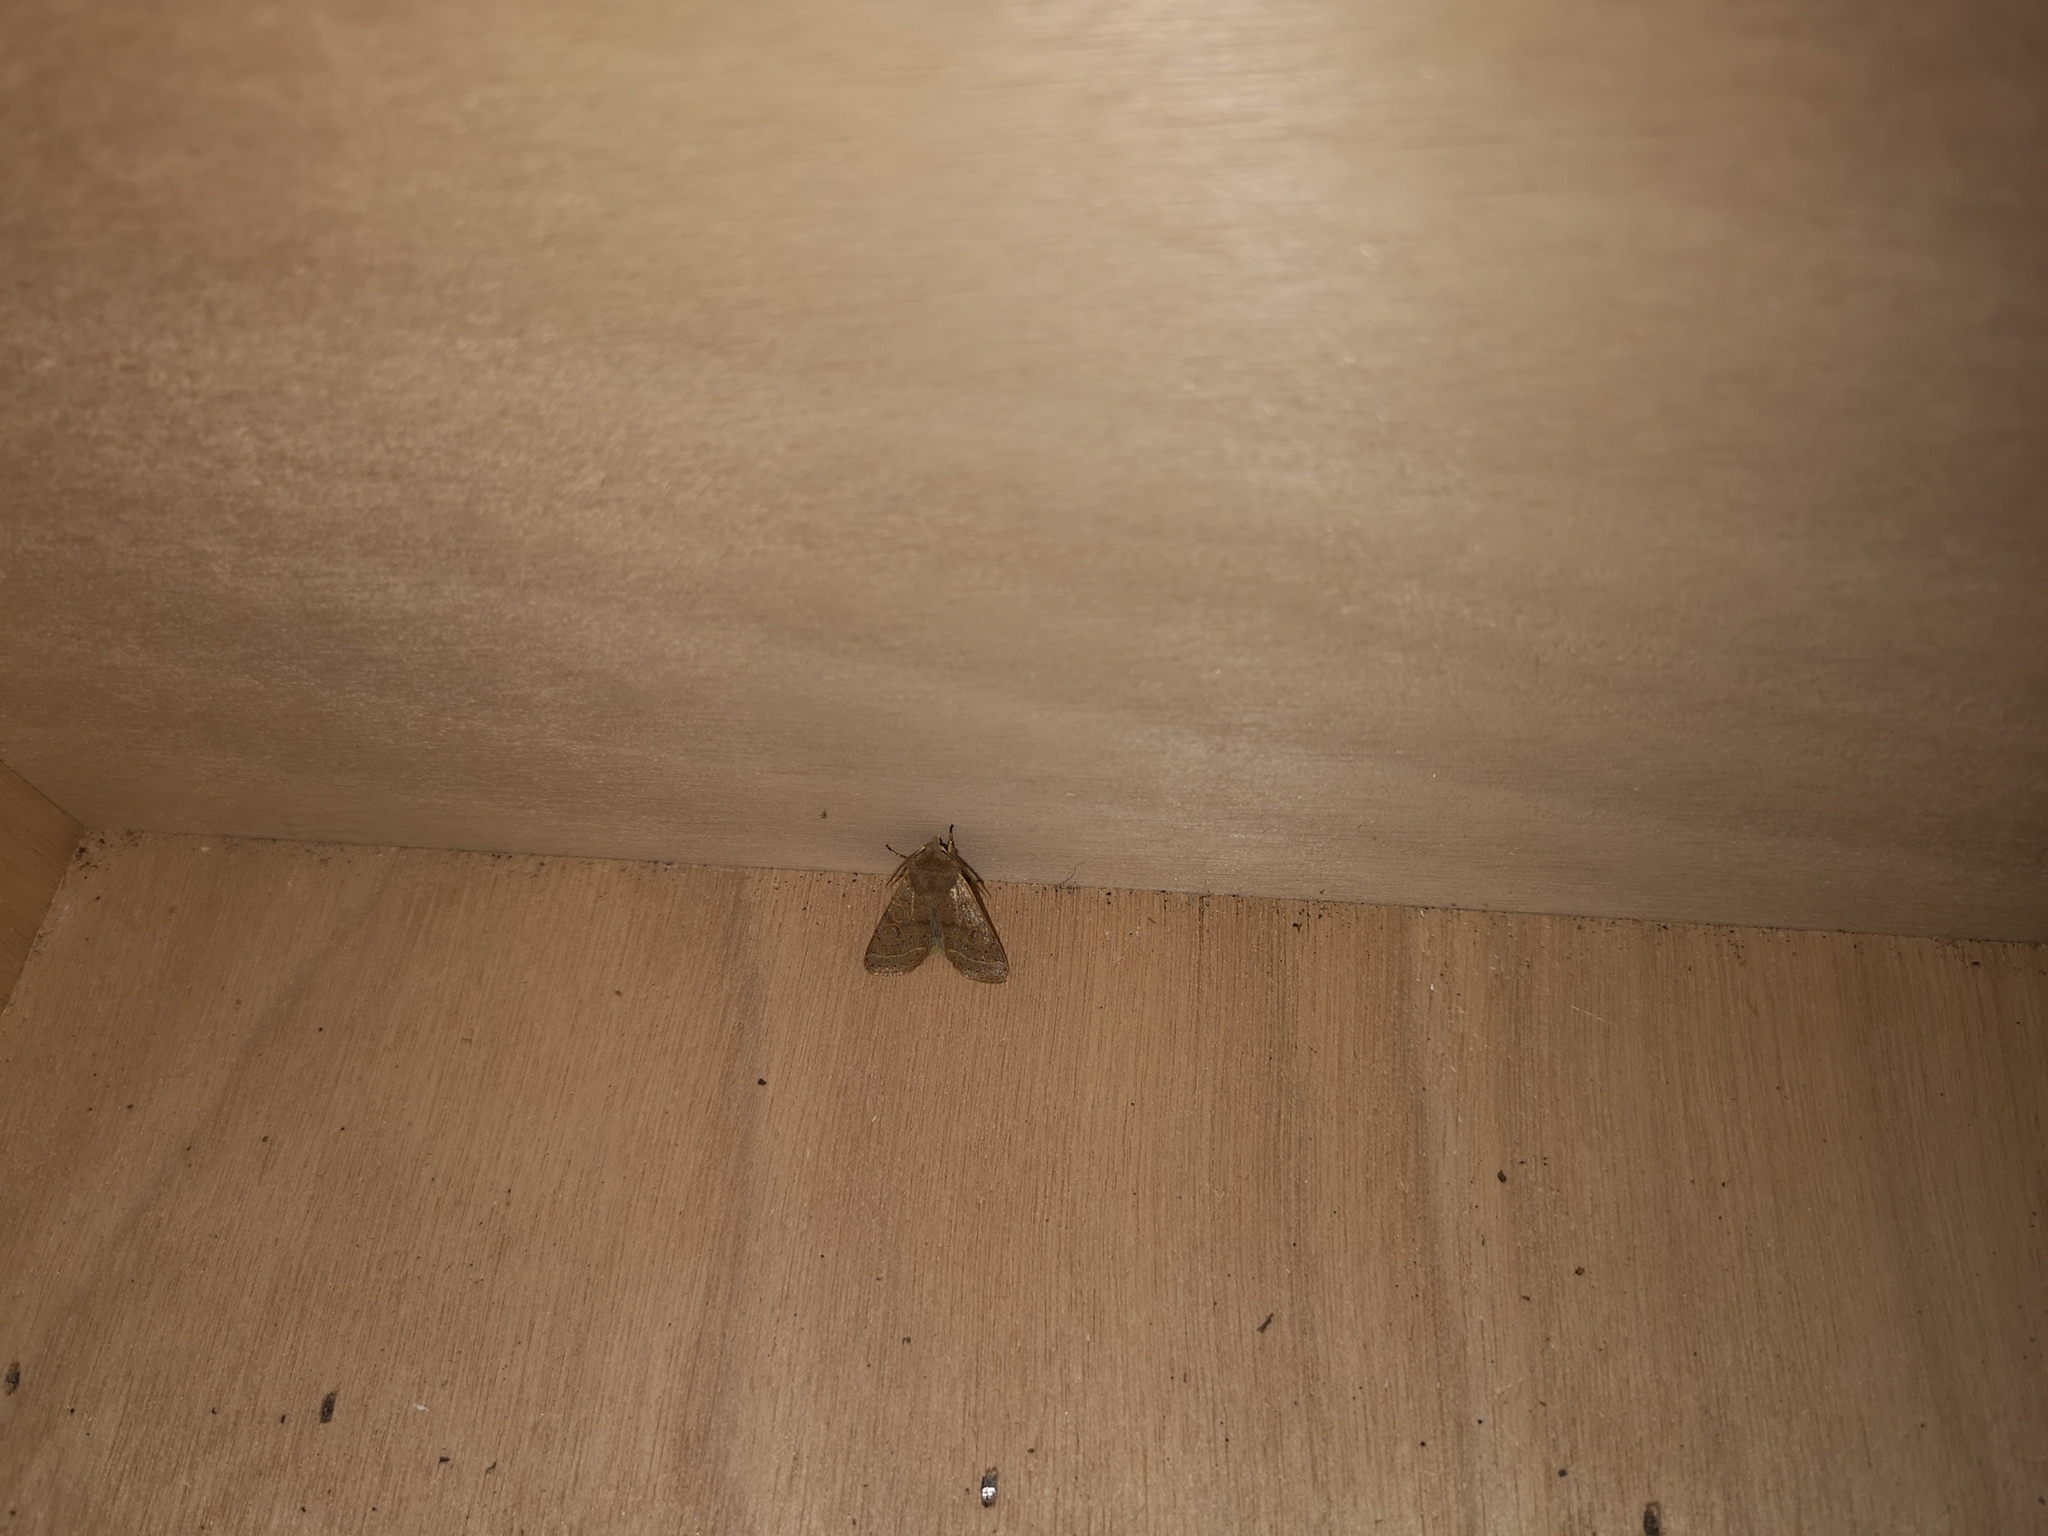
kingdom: Animalia
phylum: Arthropoda
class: Insecta
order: Lepidoptera
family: Noctuidae
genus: Orthosia
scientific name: Orthosia cerasi
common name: Common quaker
